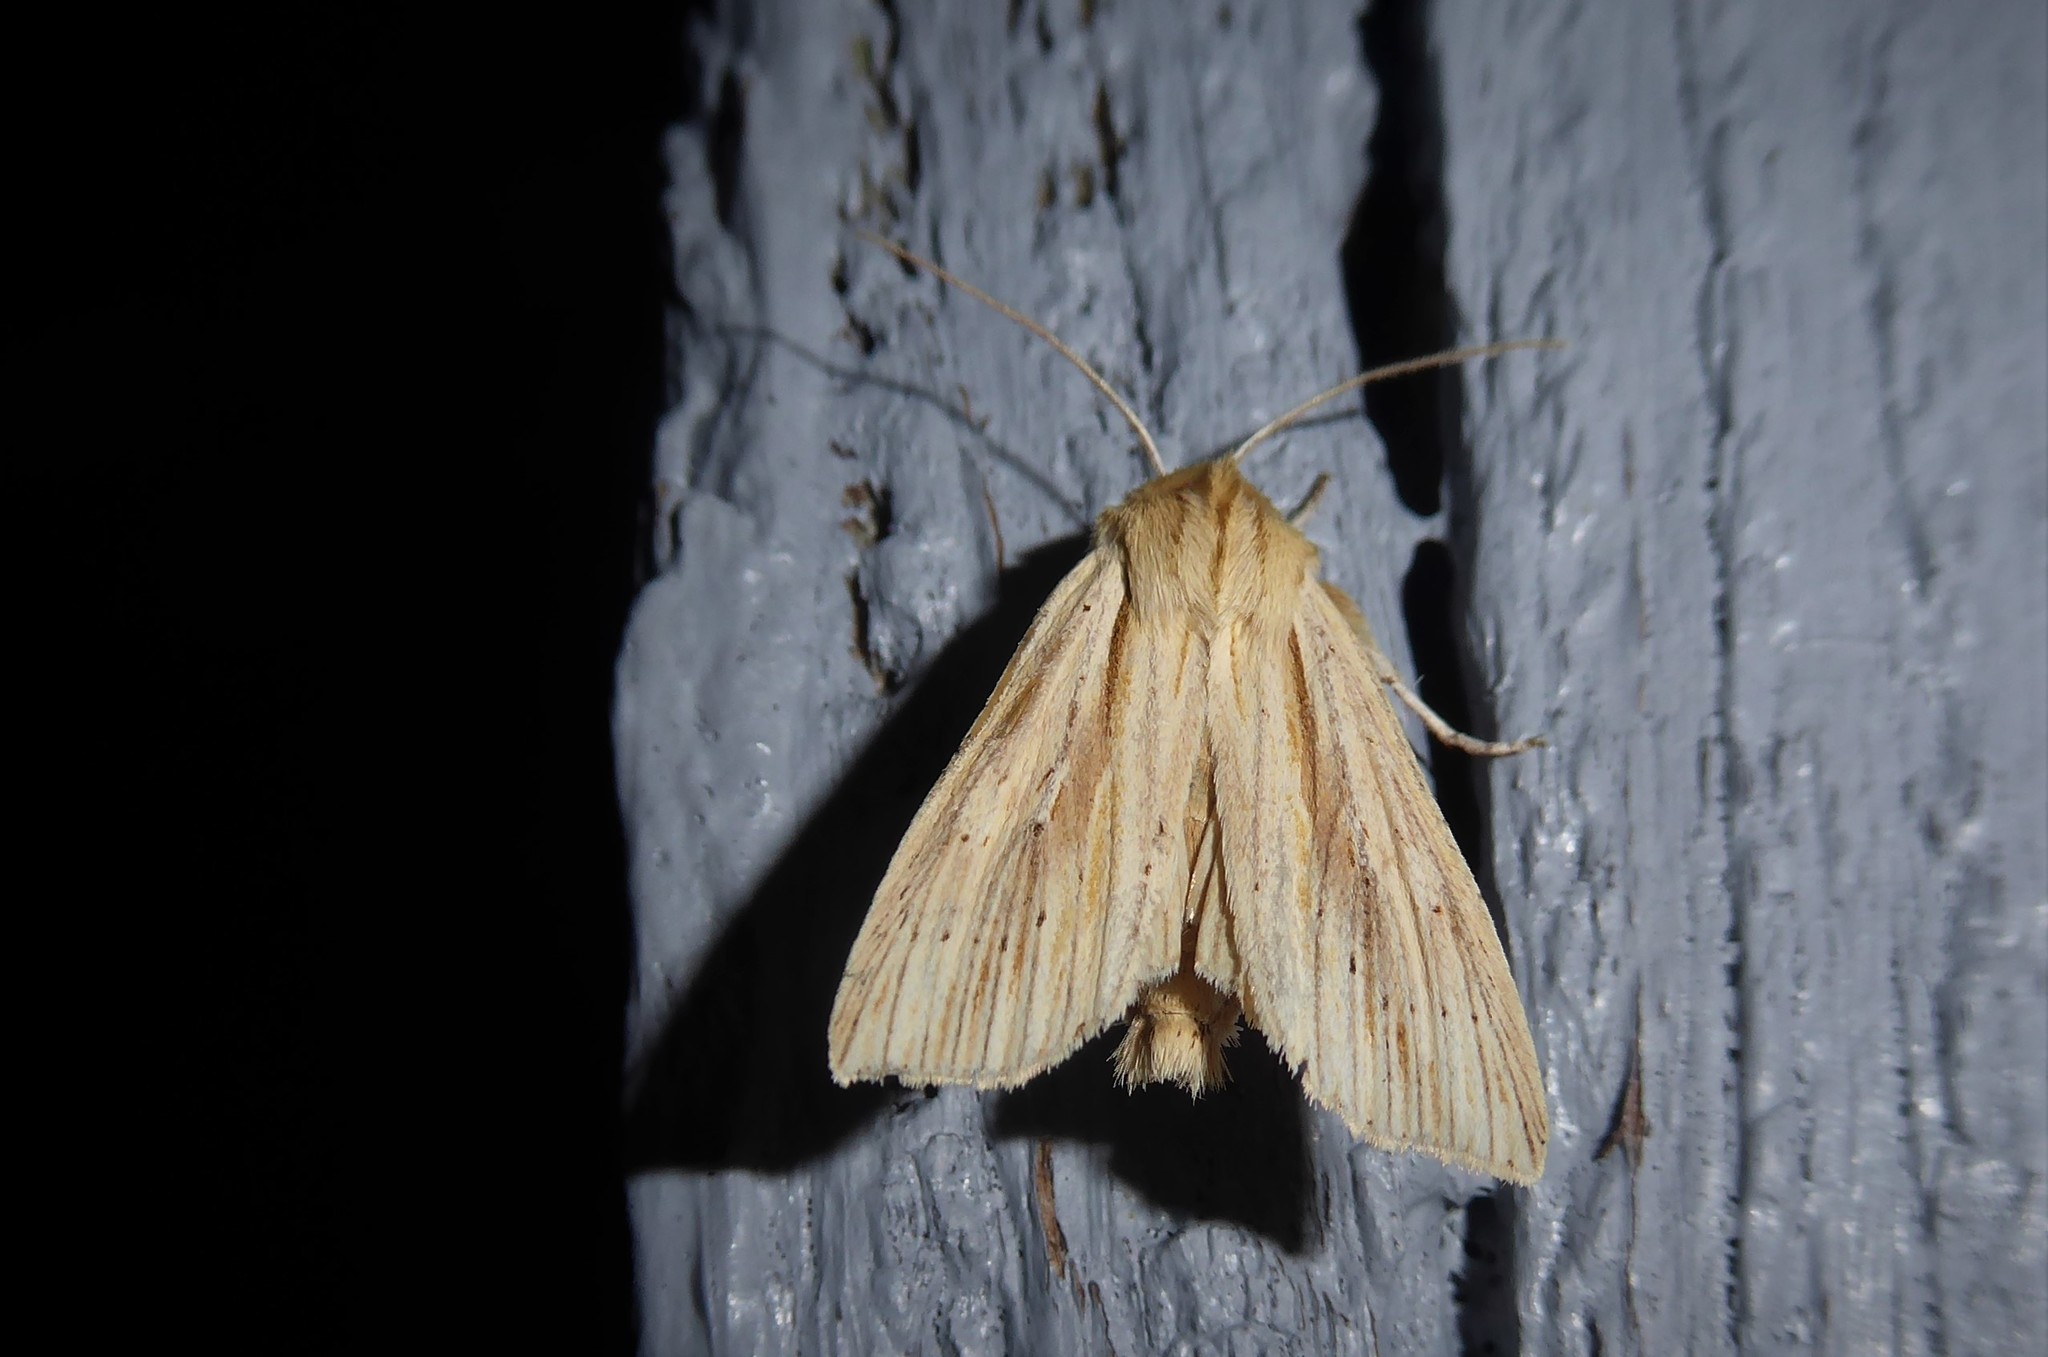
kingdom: Animalia
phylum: Arthropoda
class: Insecta
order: Lepidoptera
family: Noctuidae
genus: Ichneutica
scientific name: Ichneutica semivittata
